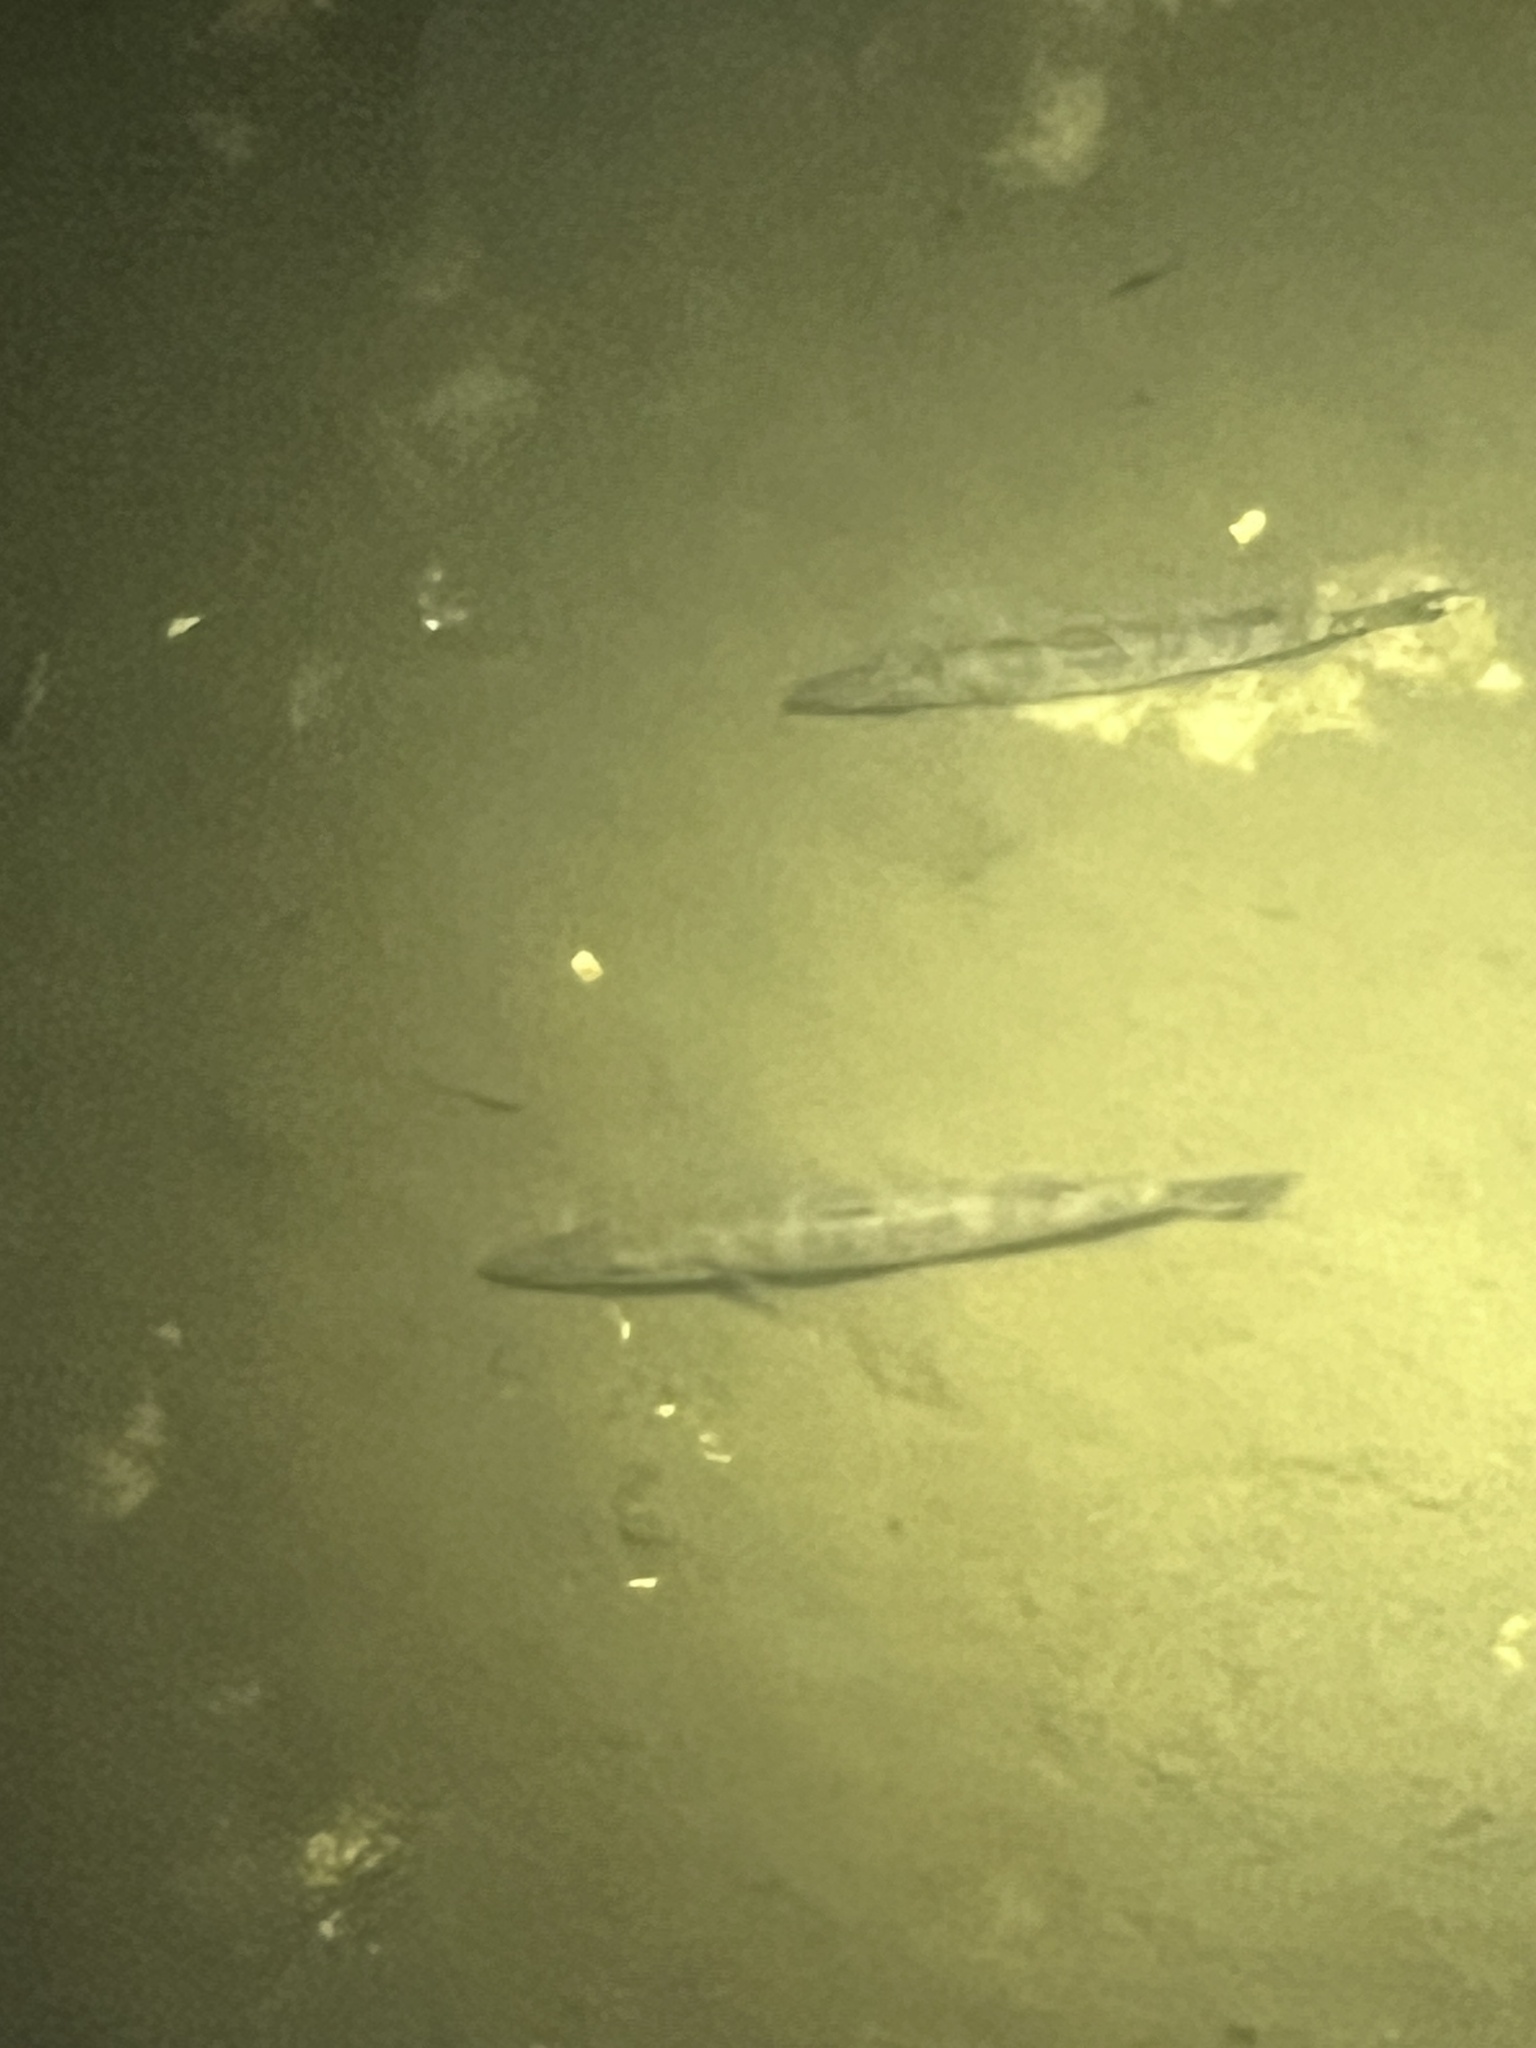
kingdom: Animalia
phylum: Chordata
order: Perciformes
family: Sphyraenidae
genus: Sphyraena
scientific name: Sphyraena barracuda
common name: Great barracuda
